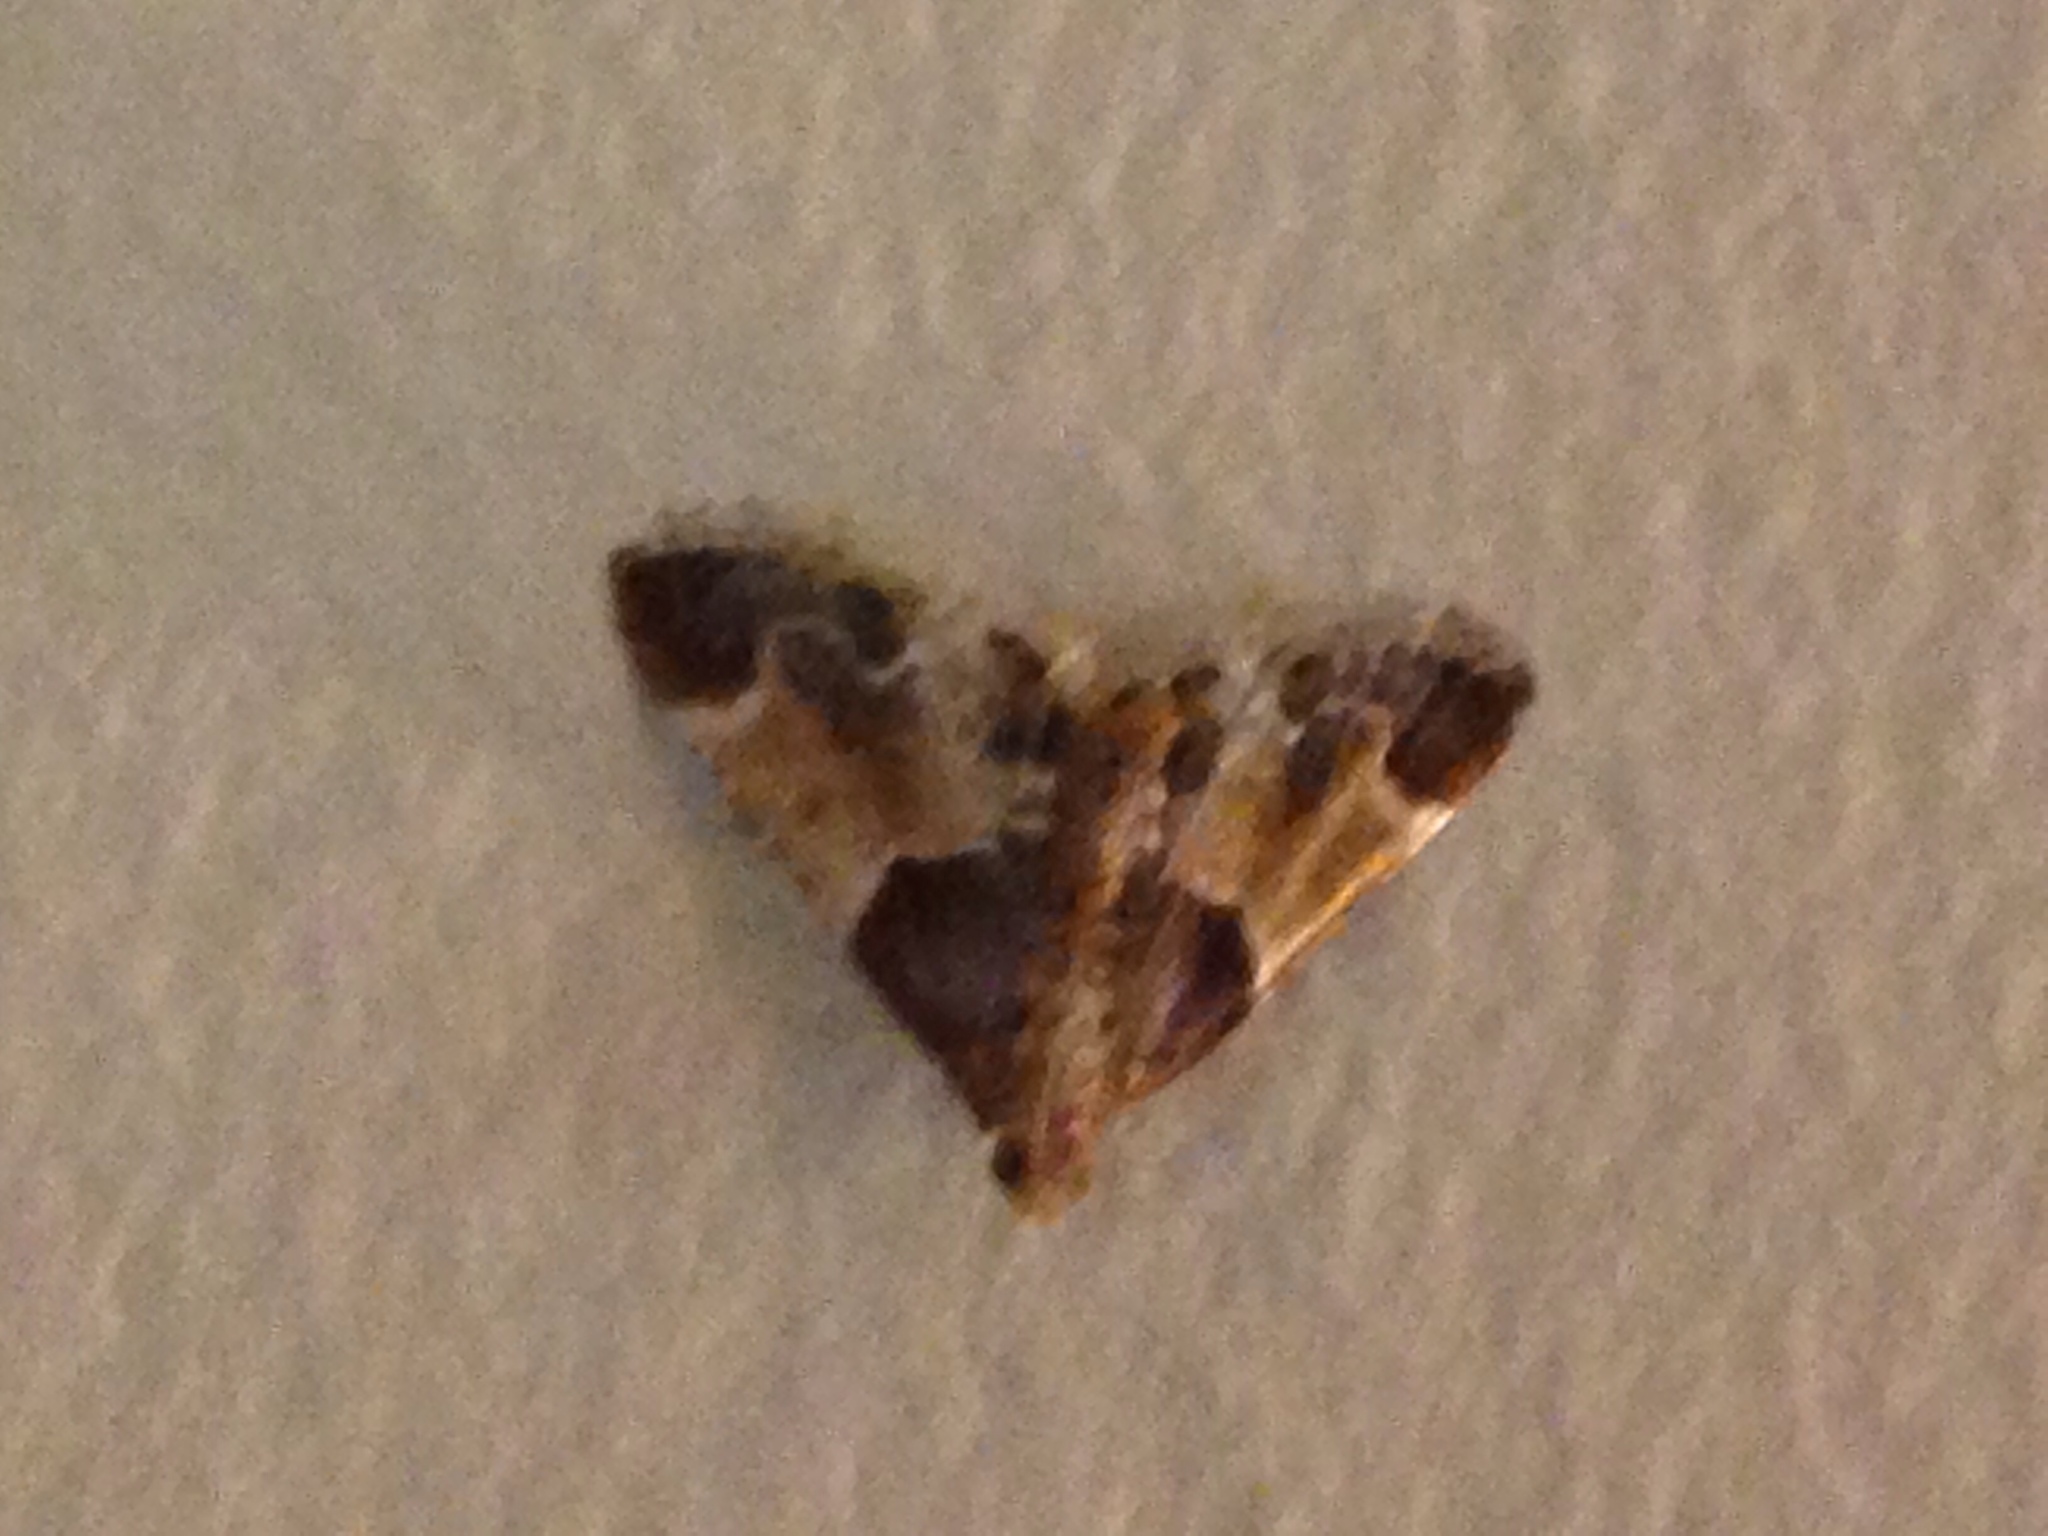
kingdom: Animalia
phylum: Arthropoda
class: Insecta
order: Lepidoptera
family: Pyralidae
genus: Pyralis
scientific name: Pyralis farinalis
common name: Meal moth
